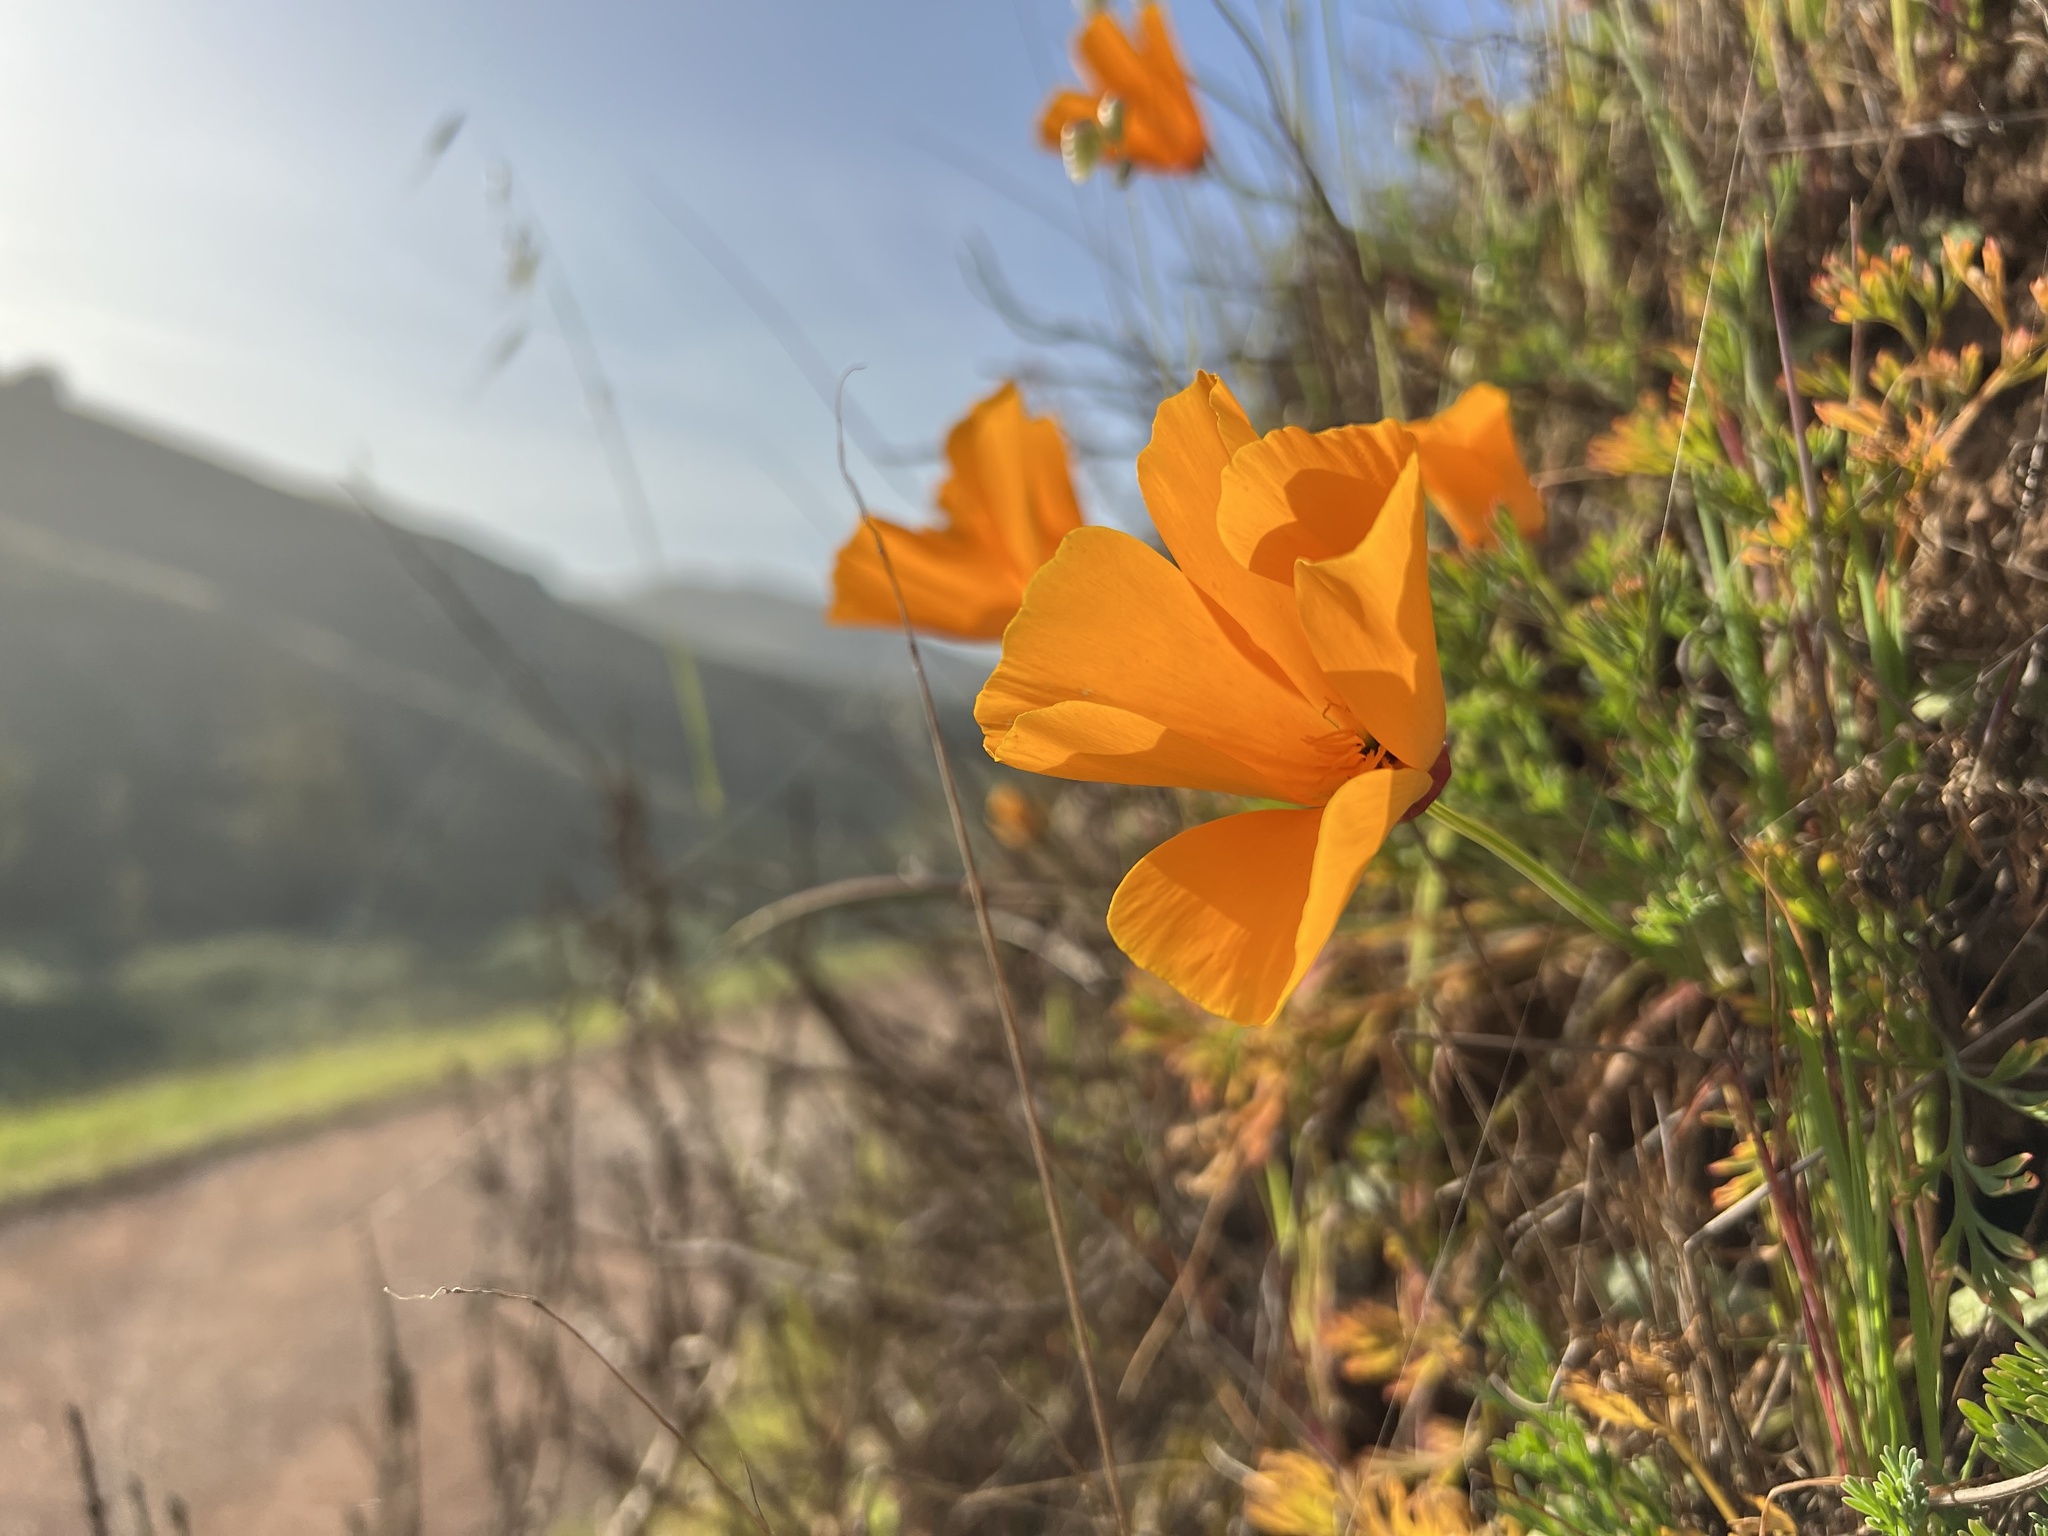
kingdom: Plantae
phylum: Tracheophyta
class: Magnoliopsida
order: Ranunculales
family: Papaveraceae
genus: Eschscholzia
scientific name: Eschscholzia californica
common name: California poppy
